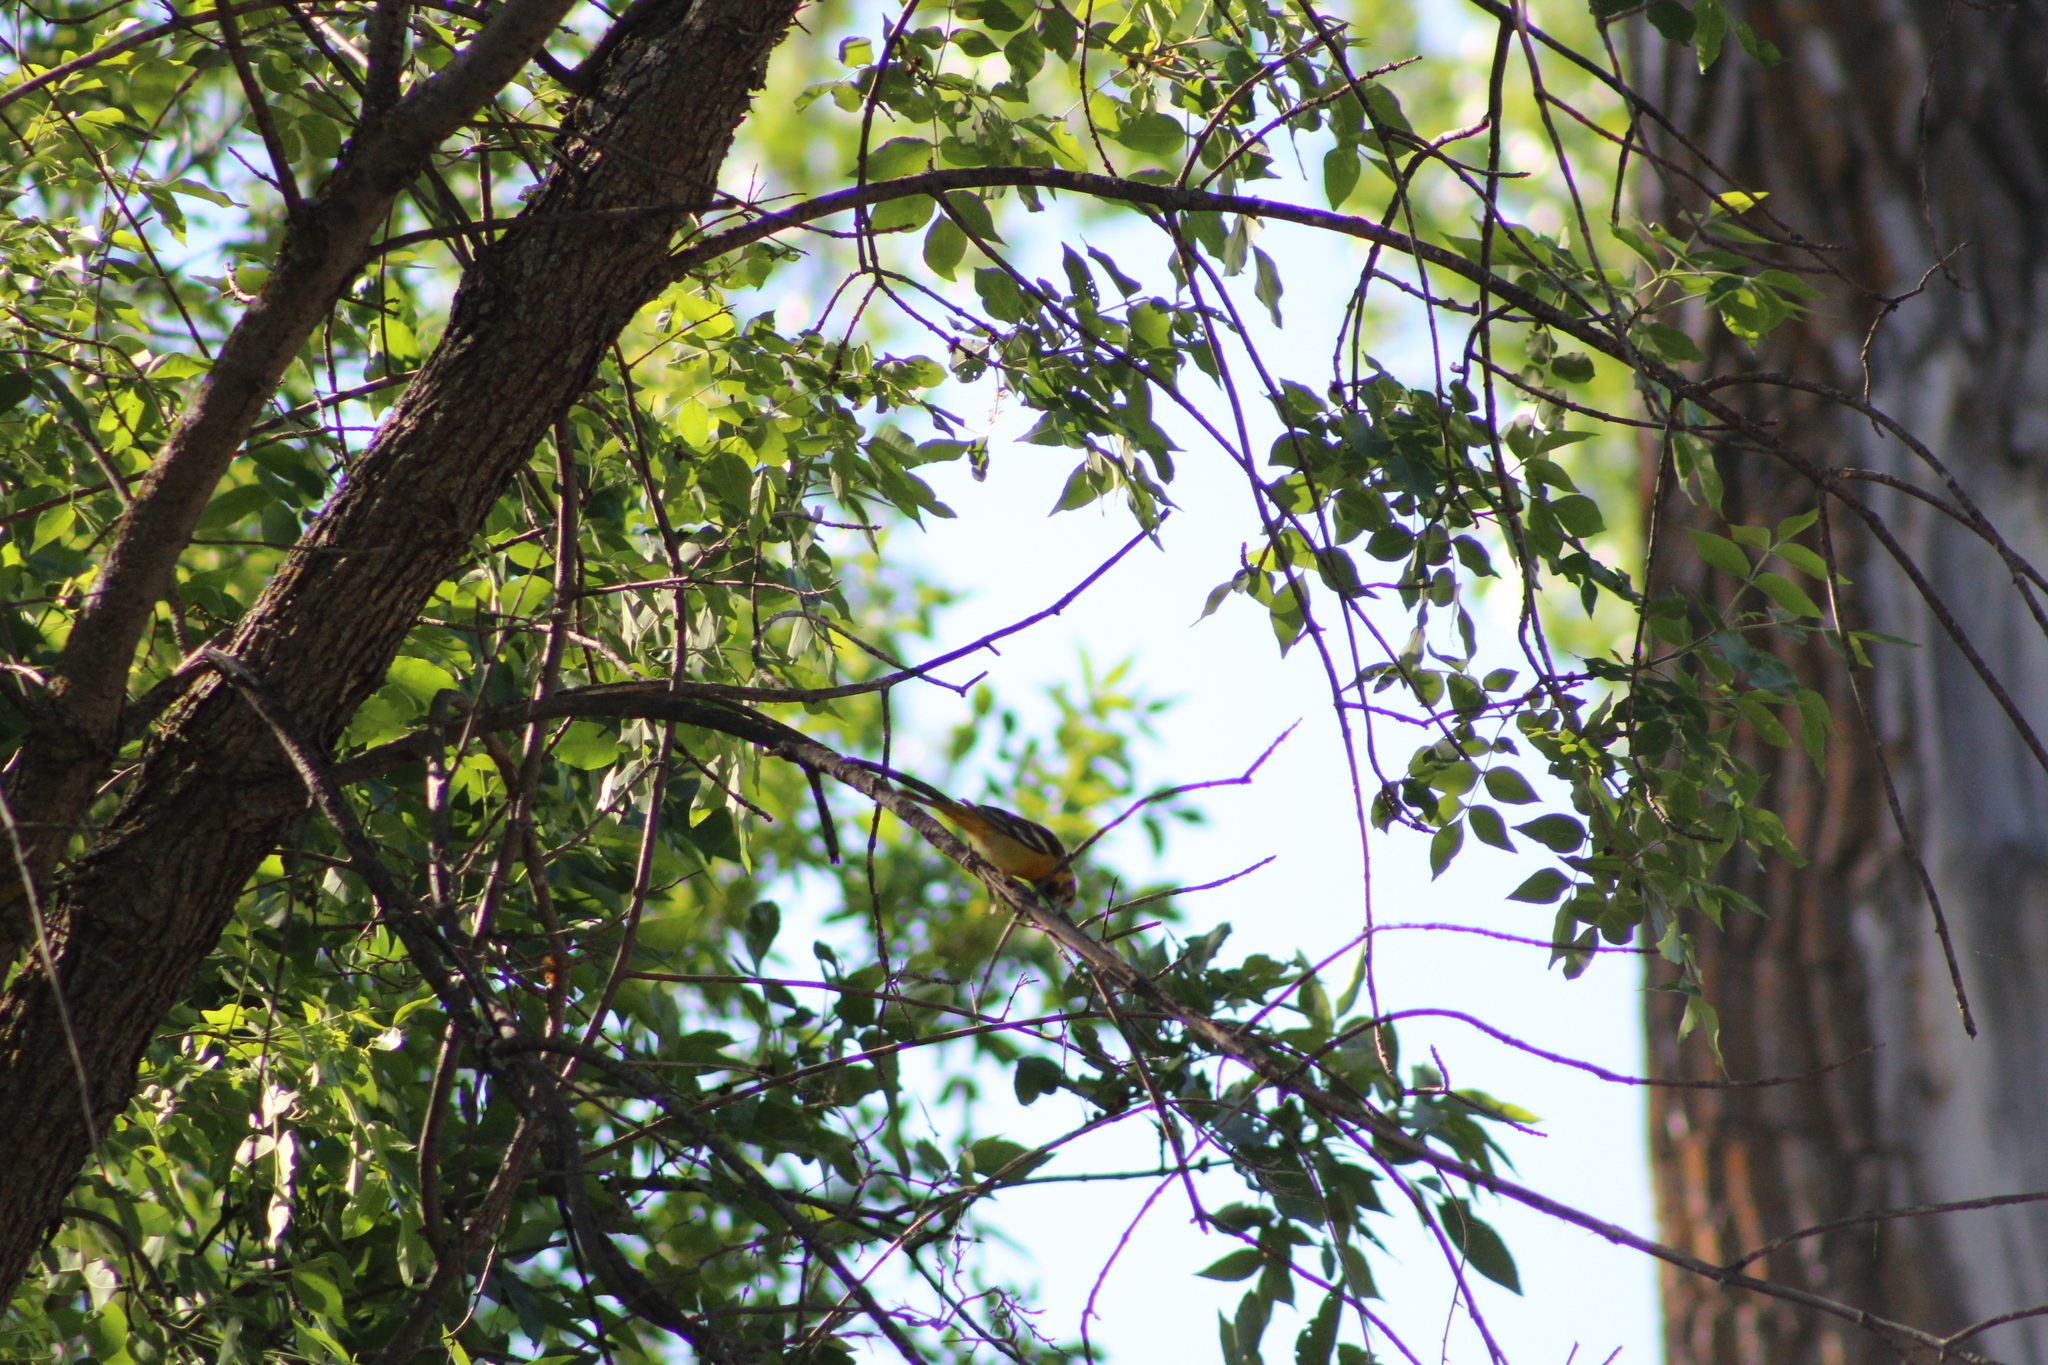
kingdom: Animalia
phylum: Chordata
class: Aves
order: Passeriformes
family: Icteridae
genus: Icterus
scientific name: Icterus galbula
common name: Baltimore oriole
